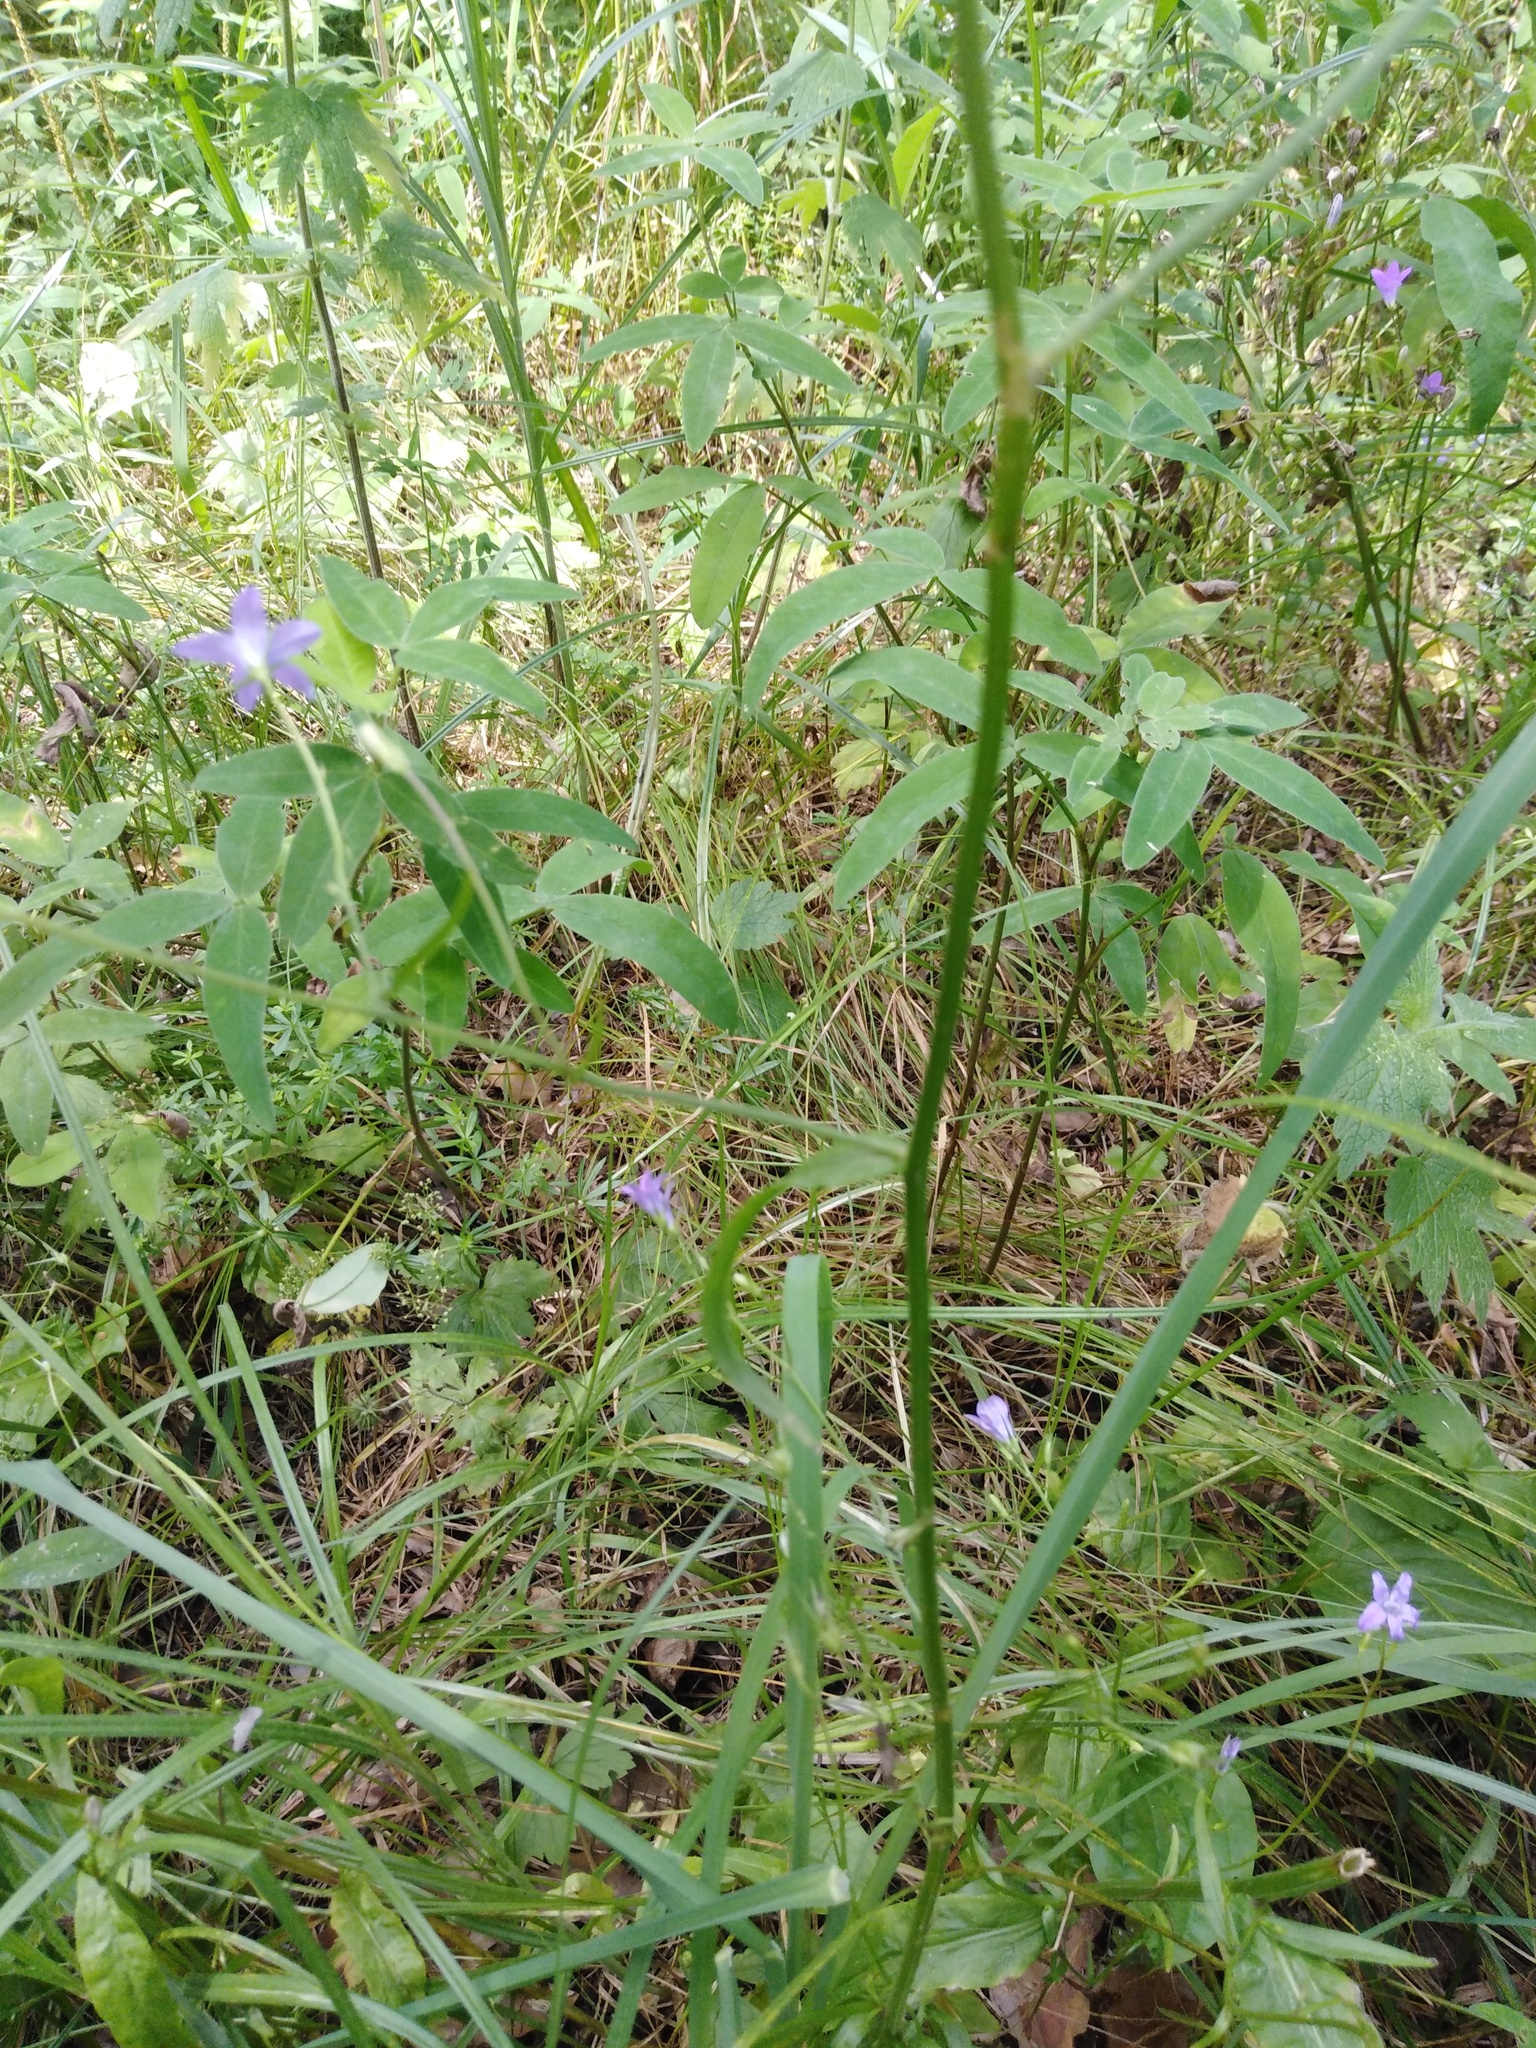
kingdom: Plantae
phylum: Tracheophyta
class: Magnoliopsida
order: Asterales
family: Campanulaceae
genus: Campanula
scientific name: Campanula patula
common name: Spreading bellflower
